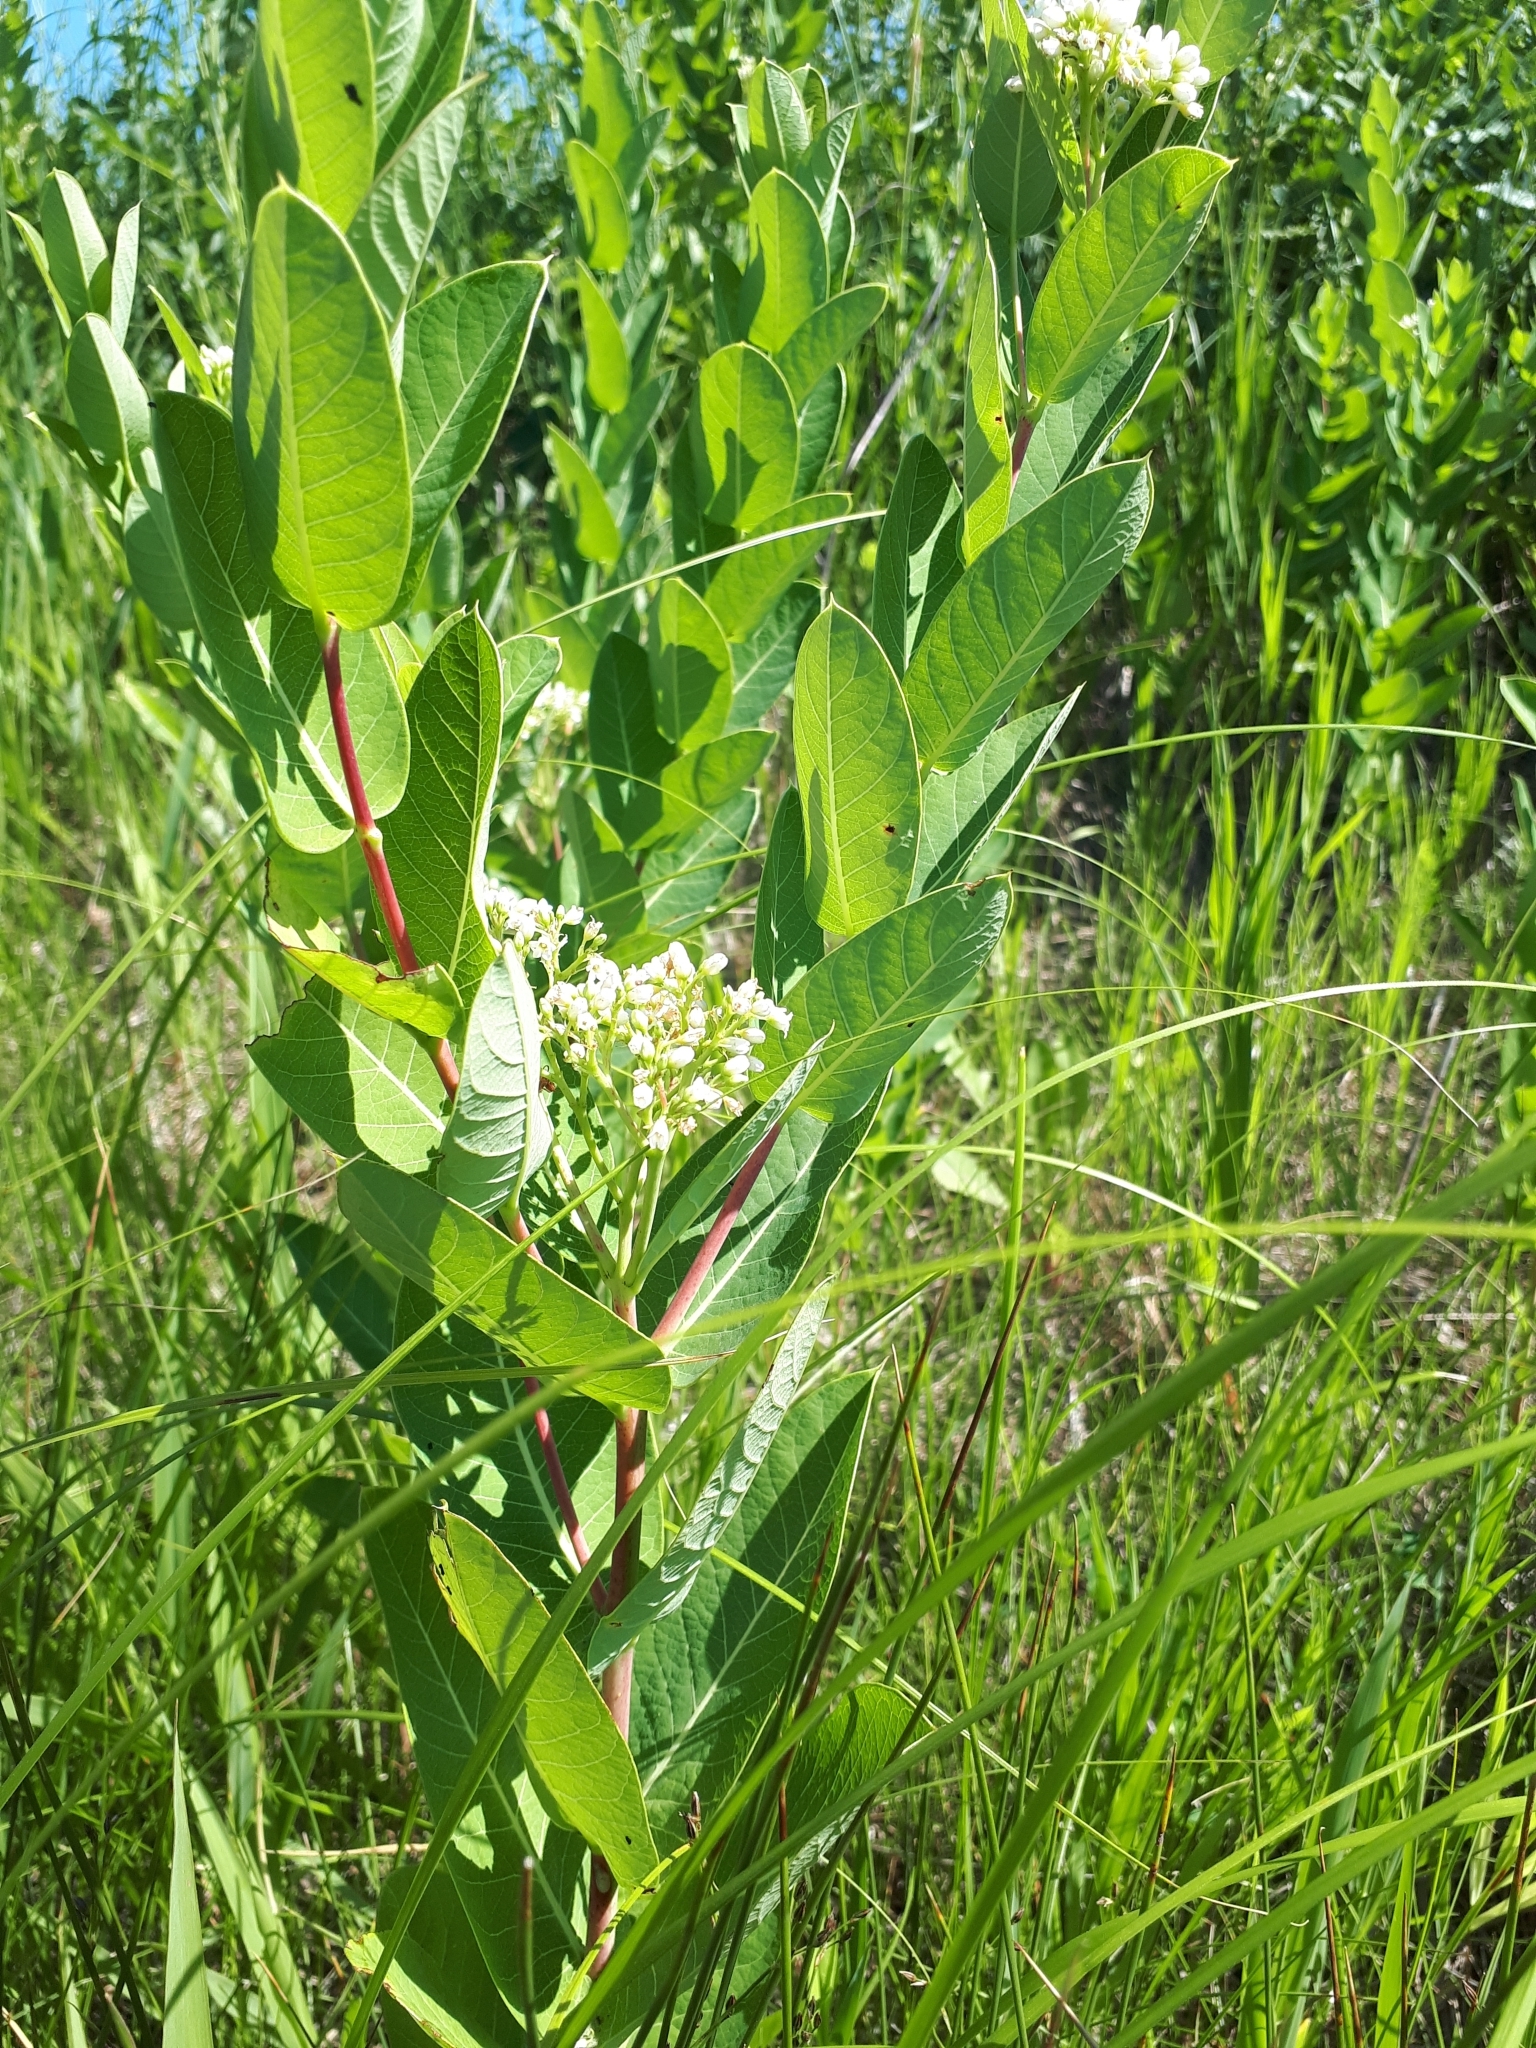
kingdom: Plantae
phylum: Tracheophyta
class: Magnoliopsida
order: Gentianales
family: Apocynaceae
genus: Apocynum
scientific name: Apocynum cannabinum
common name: Hemp dogbane
